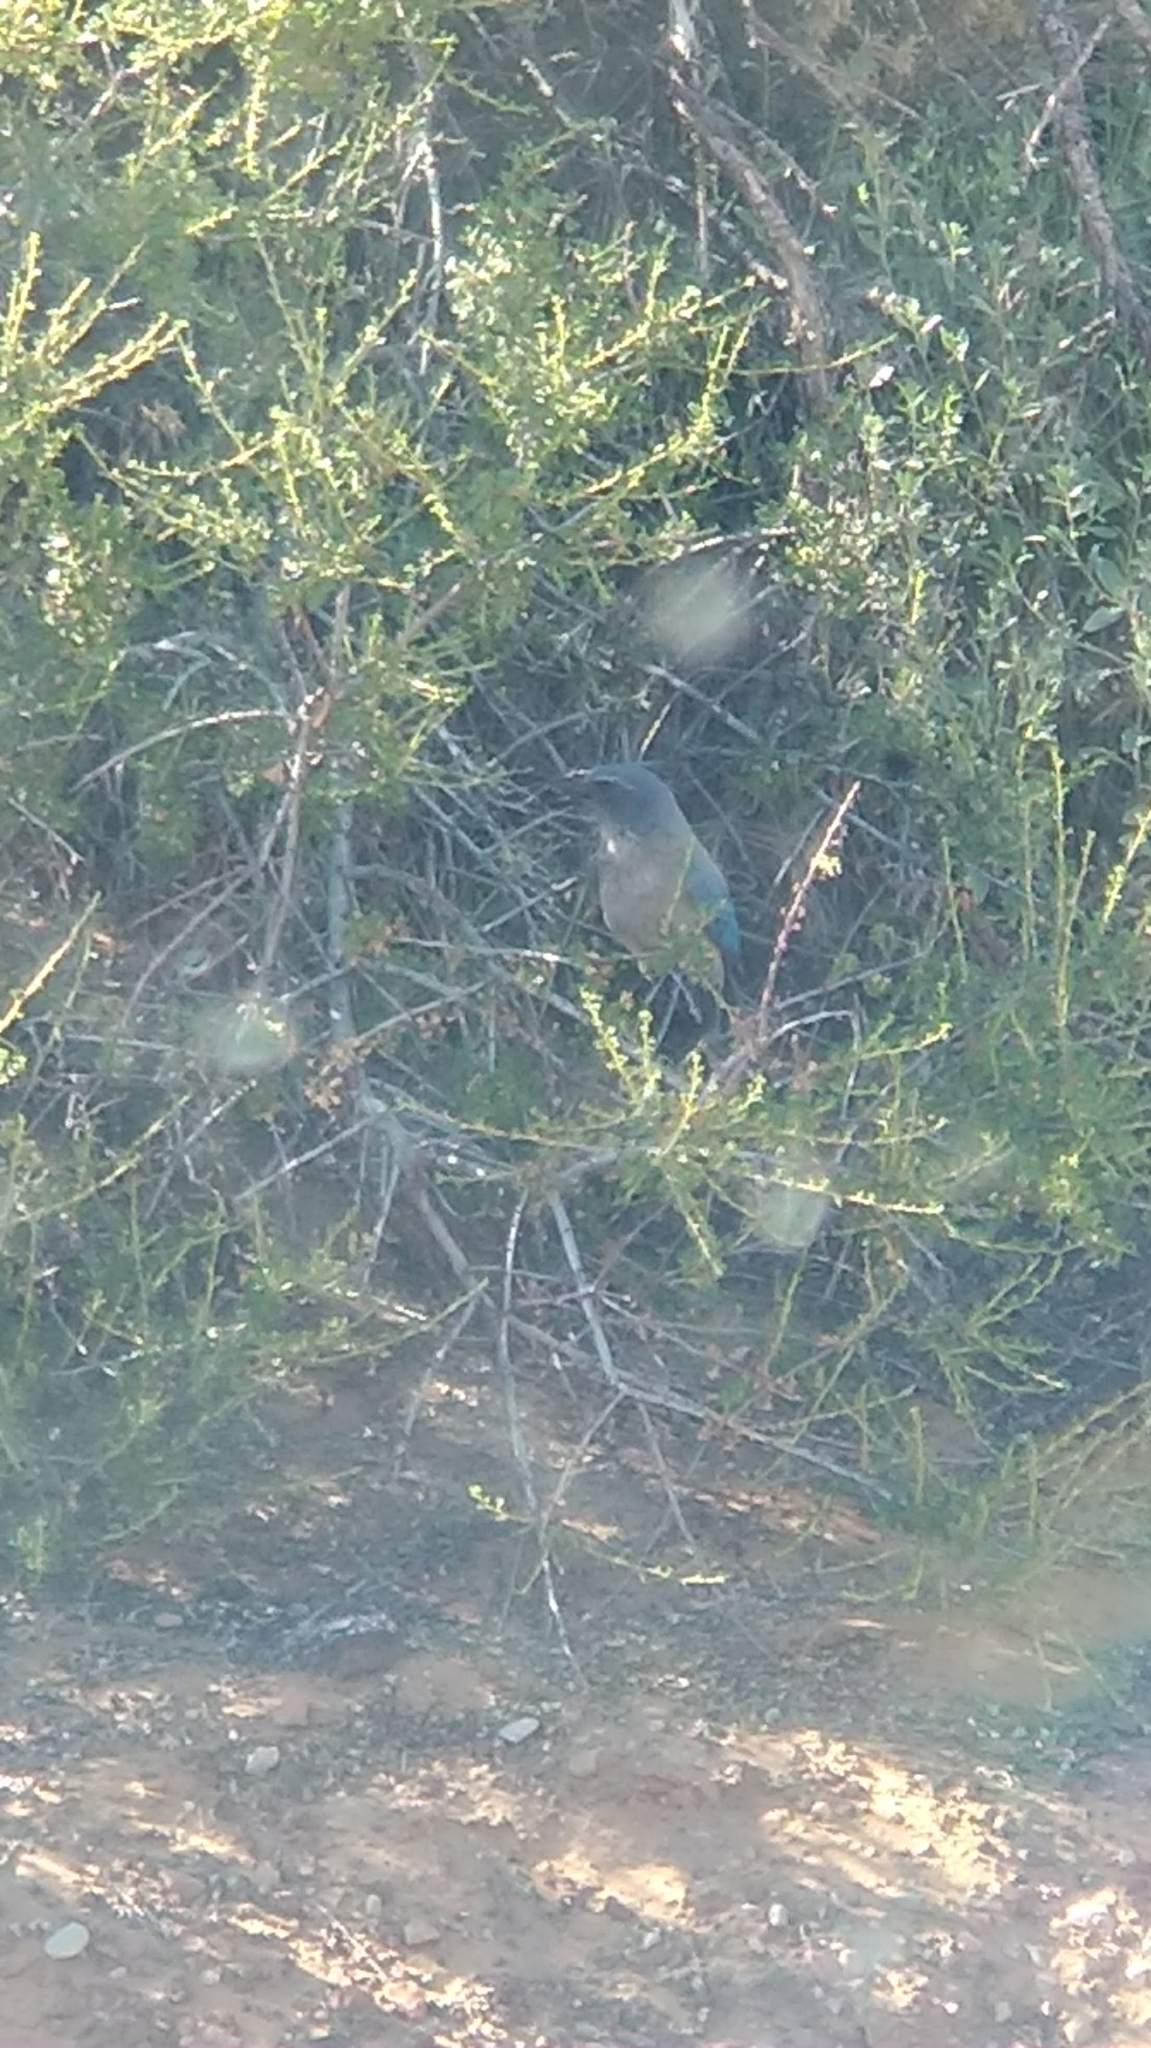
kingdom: Animalia
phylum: Chordata
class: Aves
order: Passeriformes
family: Corvidae
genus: Aphelocoma
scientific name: Aphelocoma woodhouseii
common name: Woodhouse's scrub-jay
